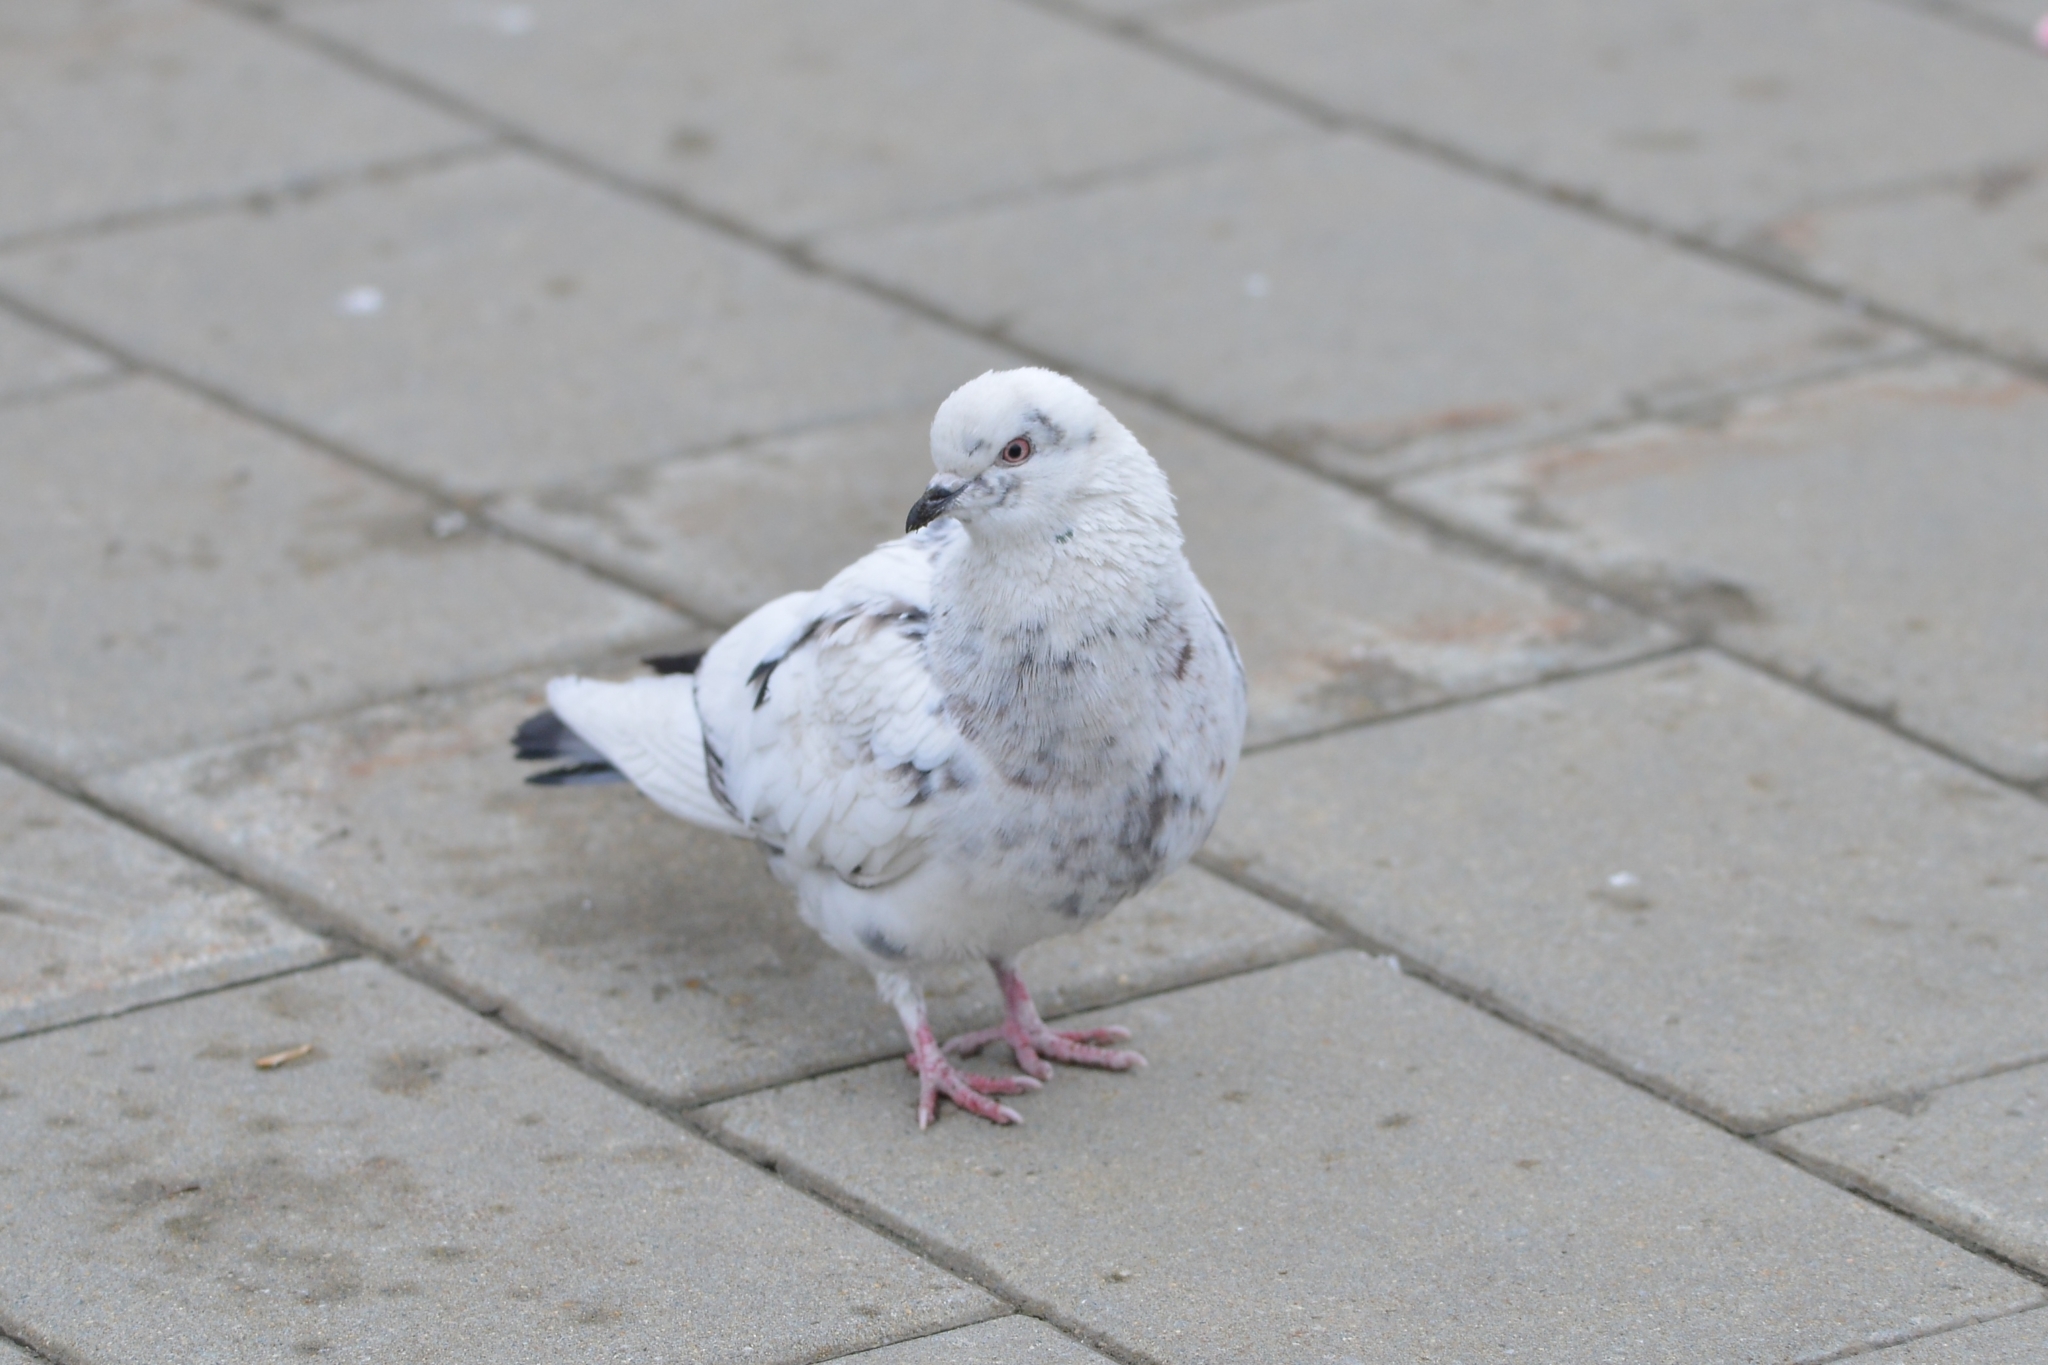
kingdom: Animalia
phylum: Chordata
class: Aves
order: Columbiformes
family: Columbidae
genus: Columba
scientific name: Columba livia
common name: Rock pigeon
